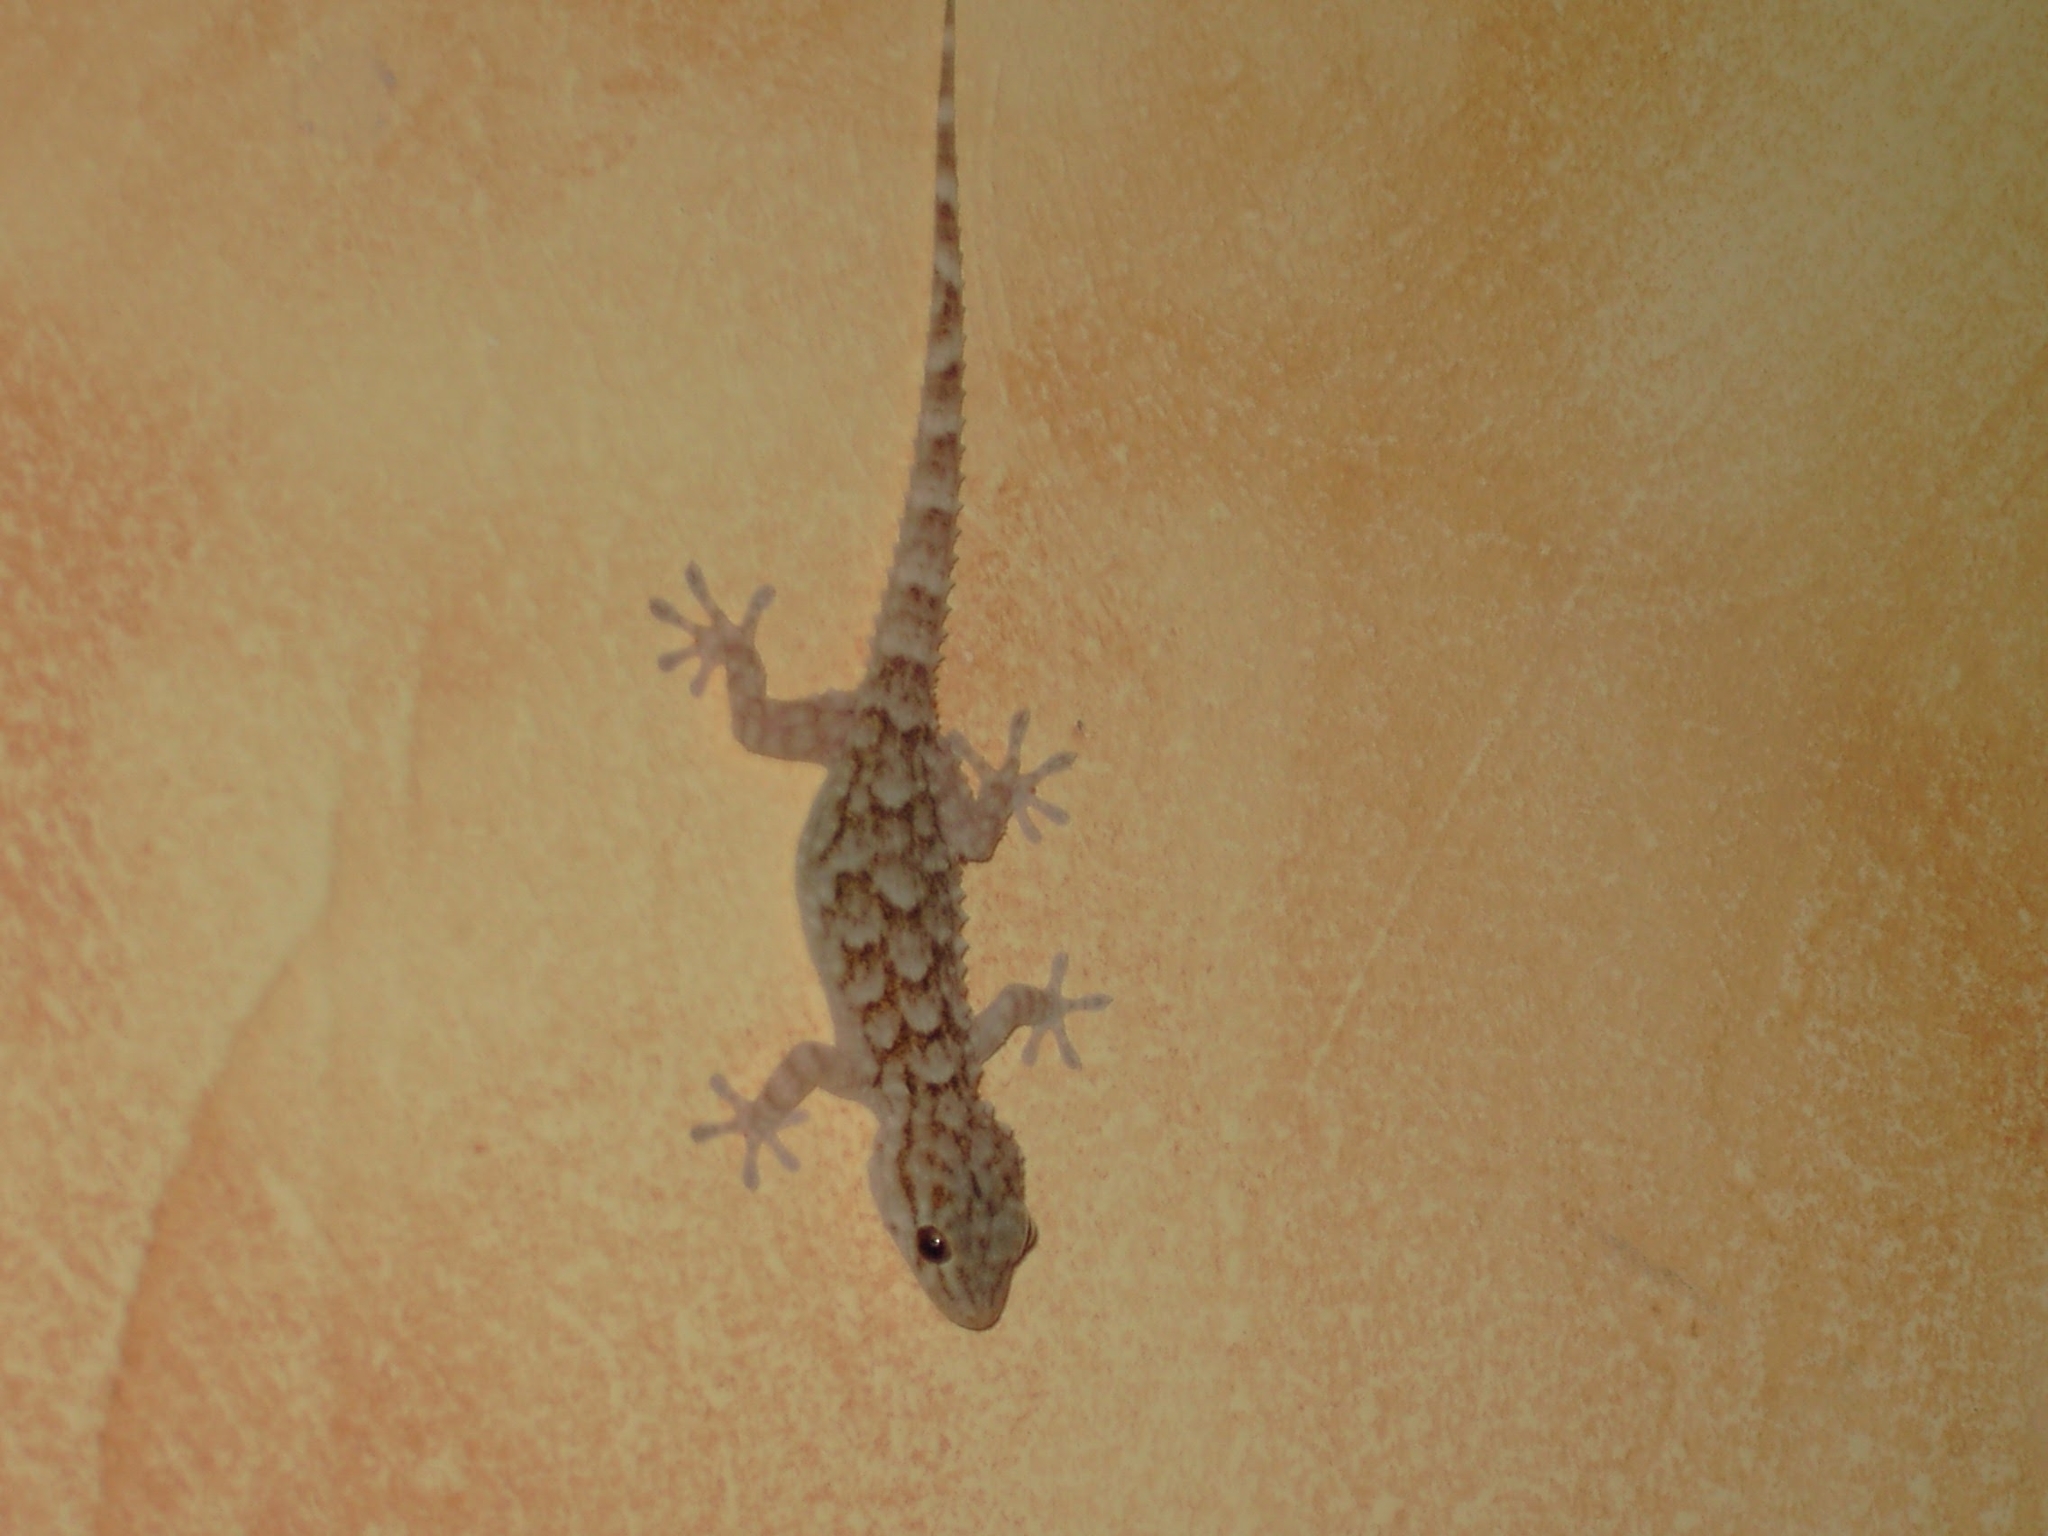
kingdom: Animalia
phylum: Chordata
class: Squamata
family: Phyllodactylidae
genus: Tarentola
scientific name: Tarentola mauritanica
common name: Moorish gecko
